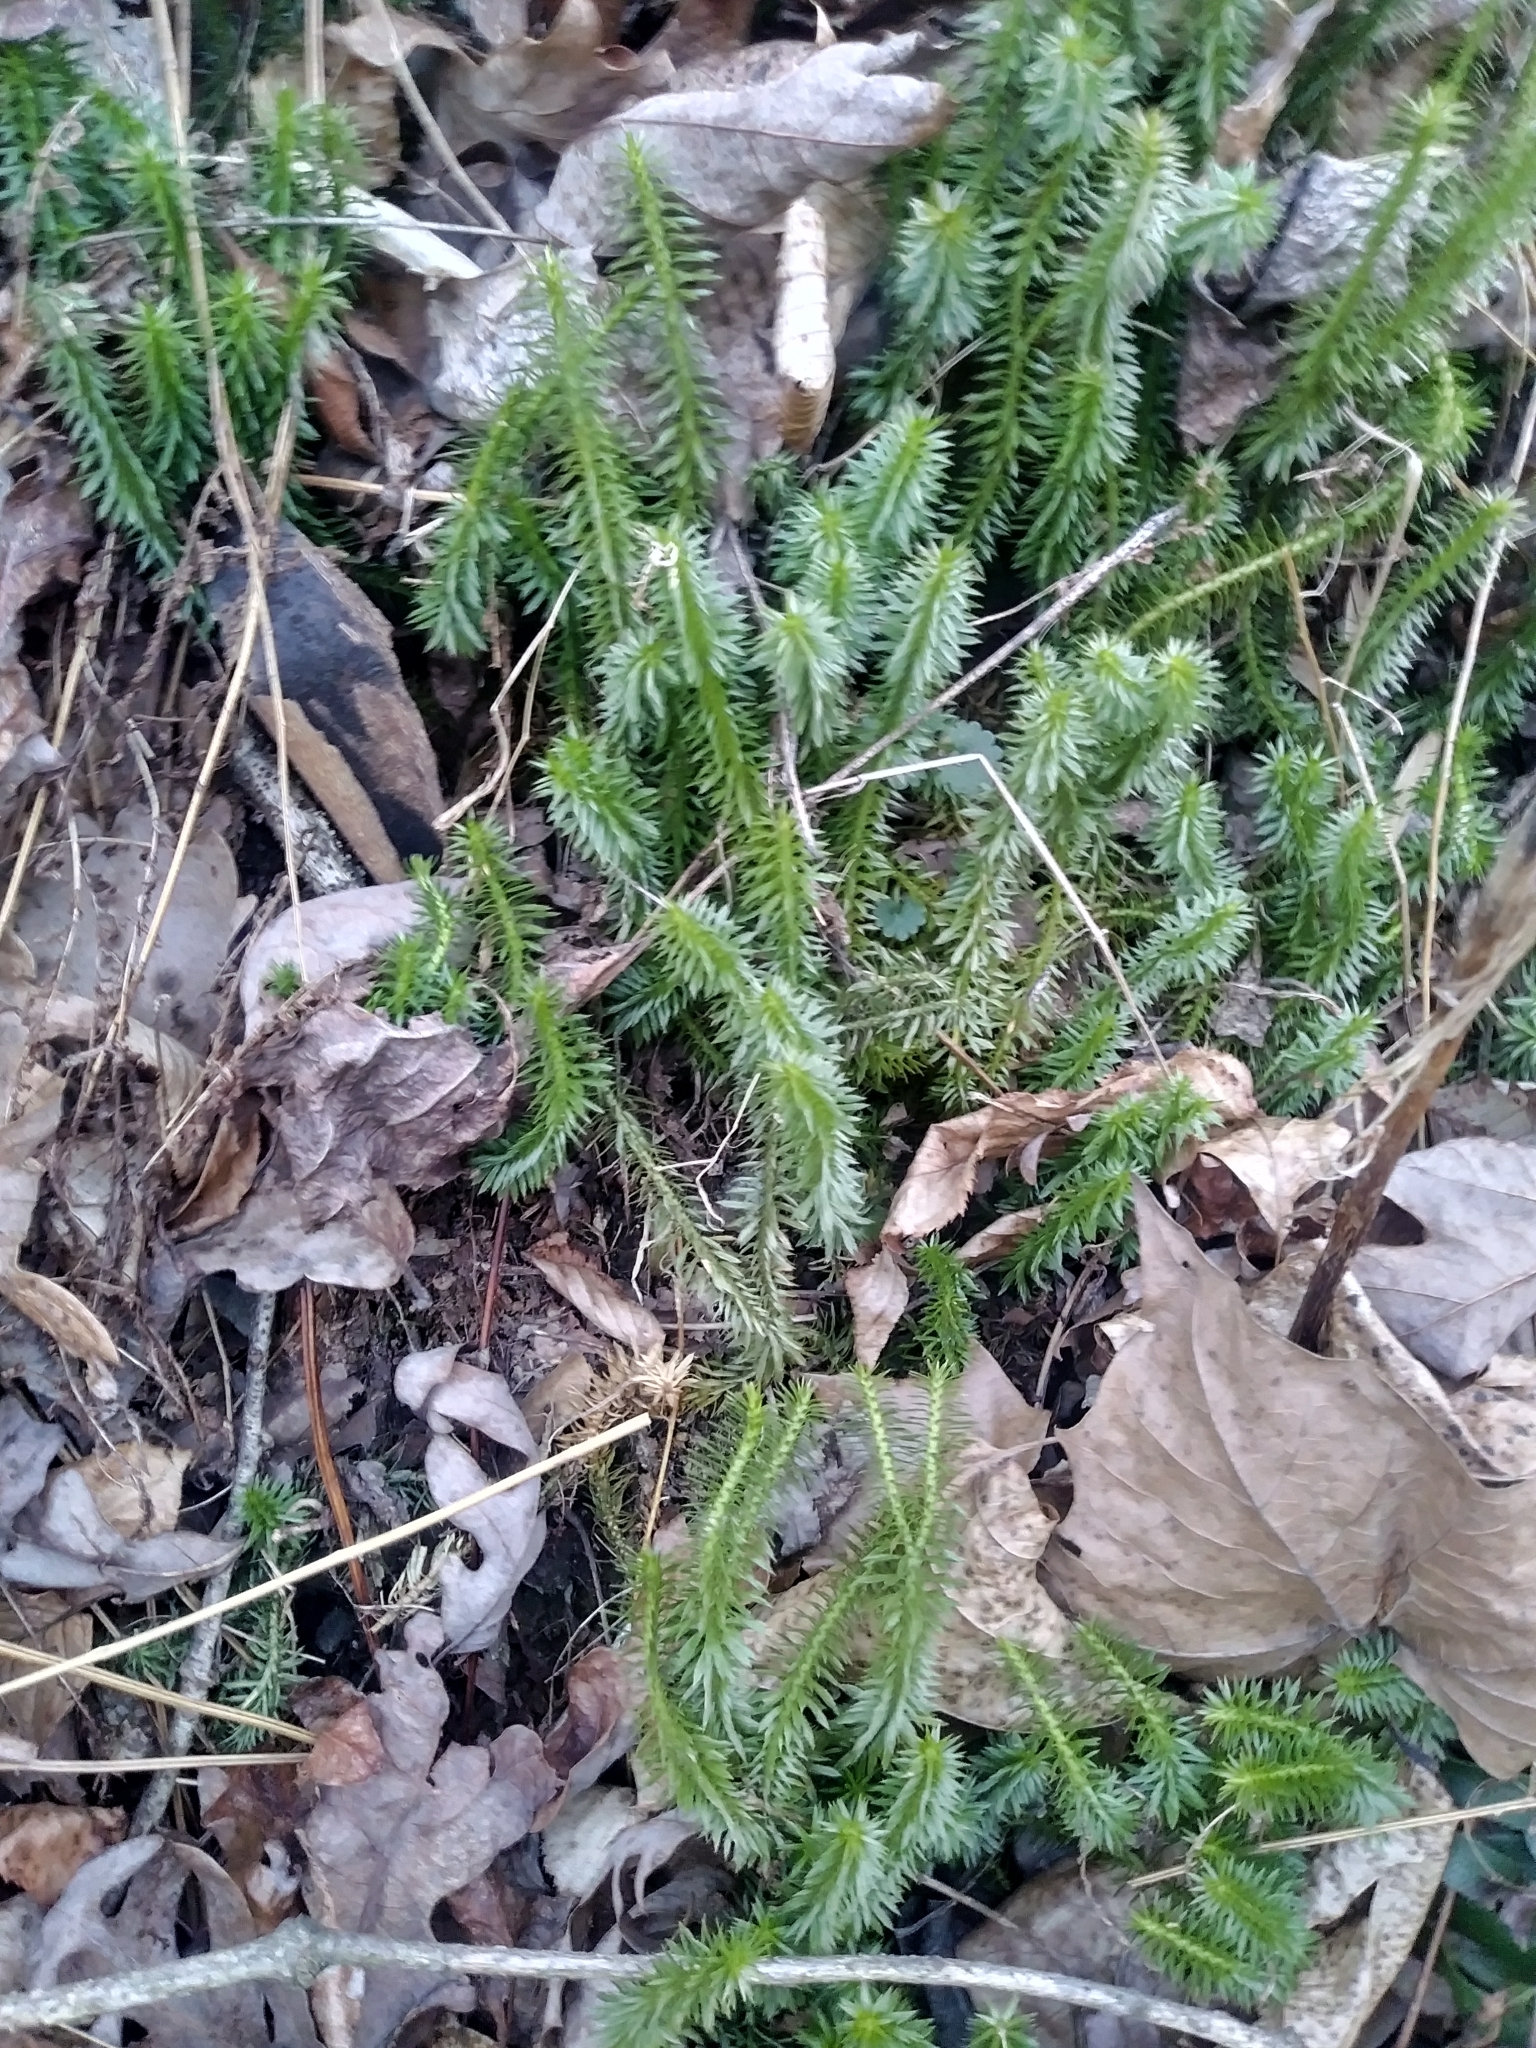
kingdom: Plantae
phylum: Tracheophyta
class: Lycopodiopsida
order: Lycopodiales
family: Lycopodiaceae
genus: Huperzia
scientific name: Huperzia lucidula
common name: Shining clubmoss
